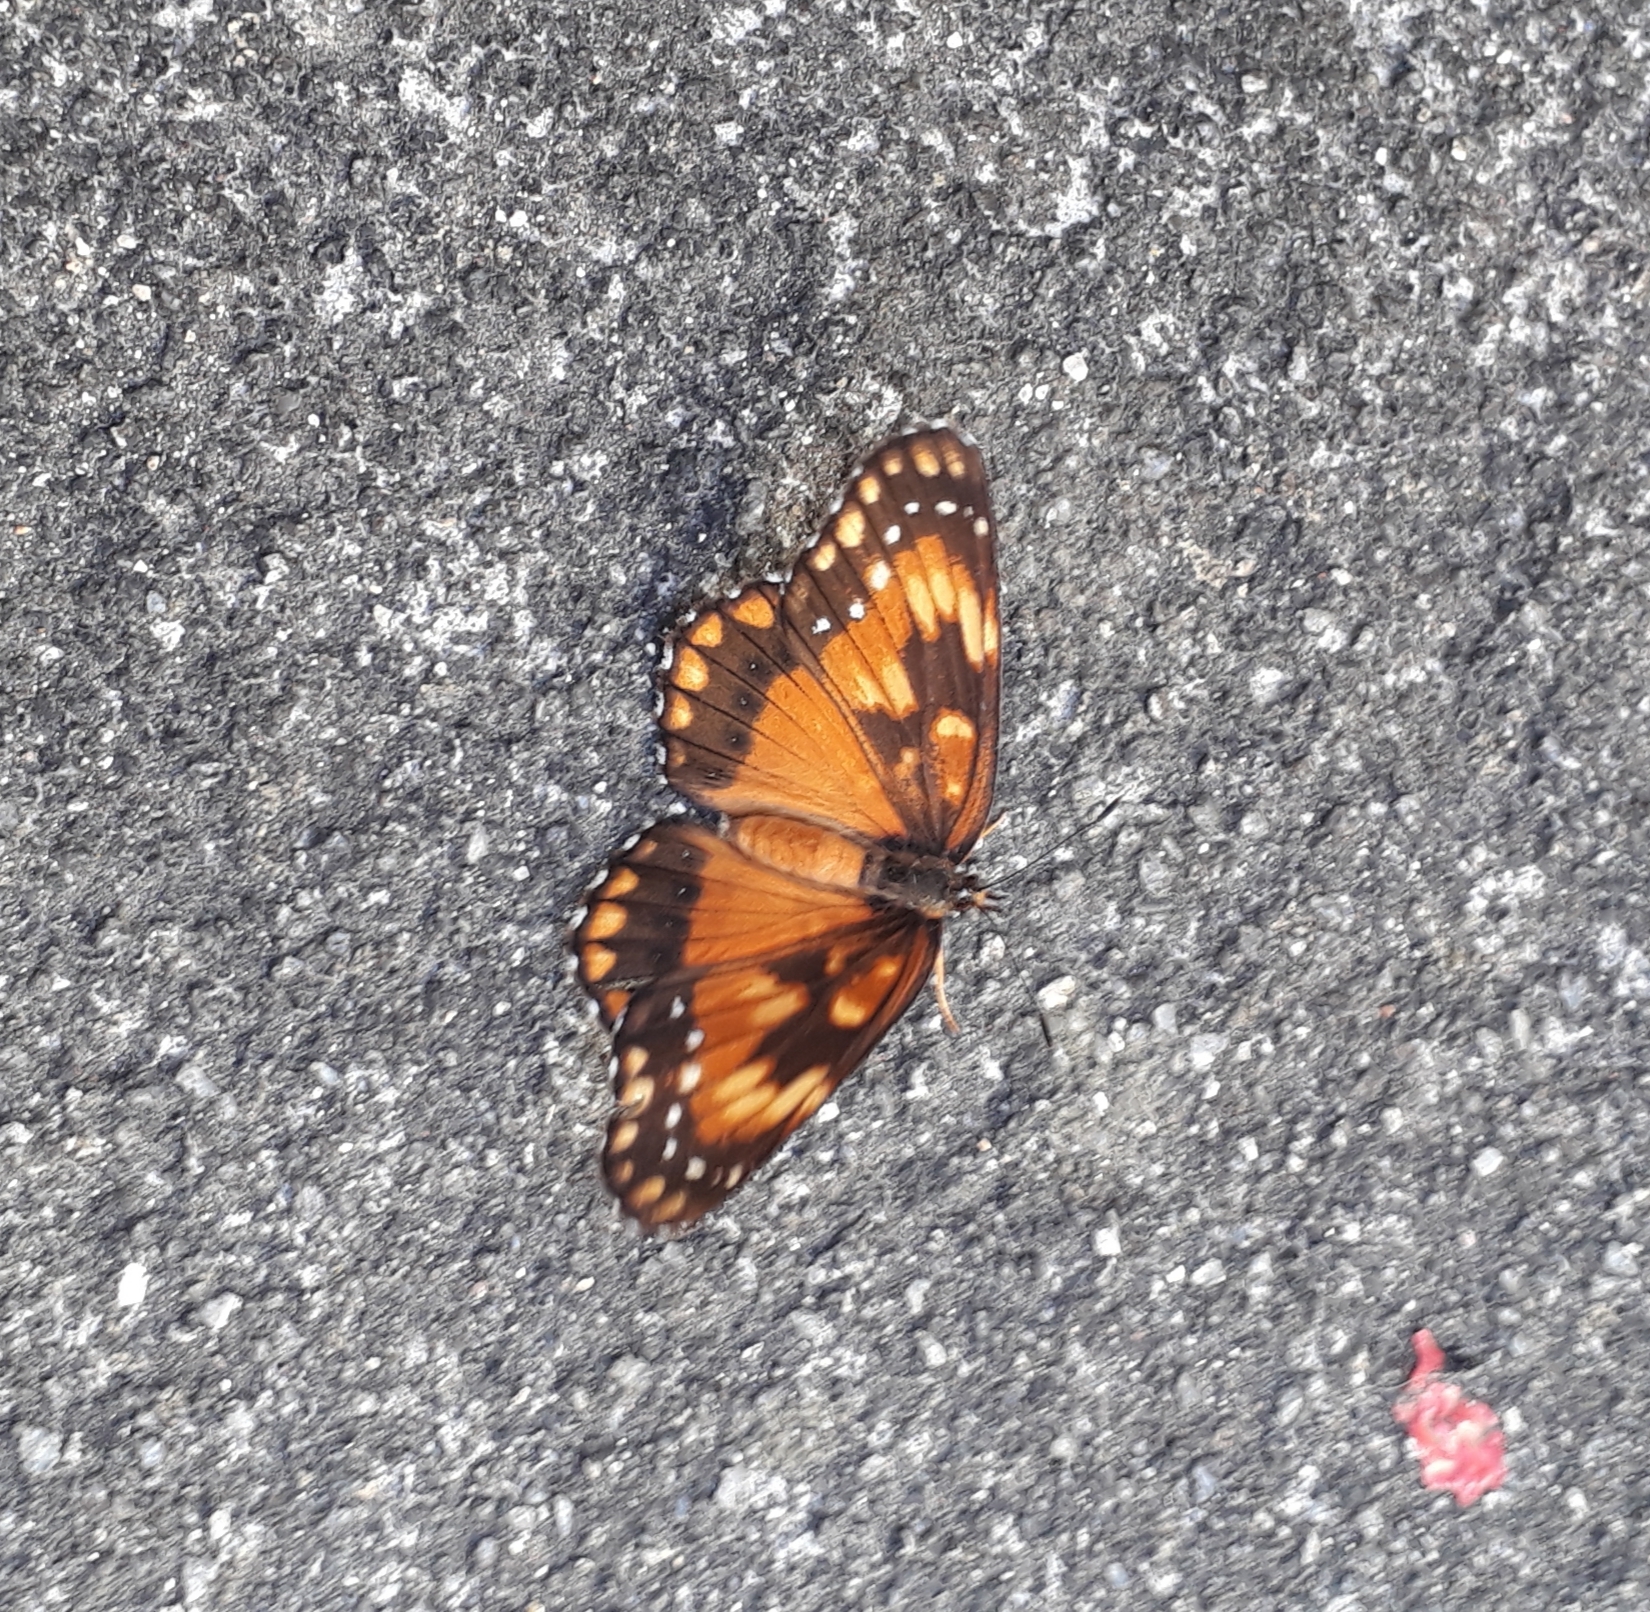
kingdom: Animalia
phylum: Arthropoda
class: Insecta
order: Lepidoptera
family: Nymphalidae
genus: Chlosyne
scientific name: Chlosyne lacinia
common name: Bordered patch
